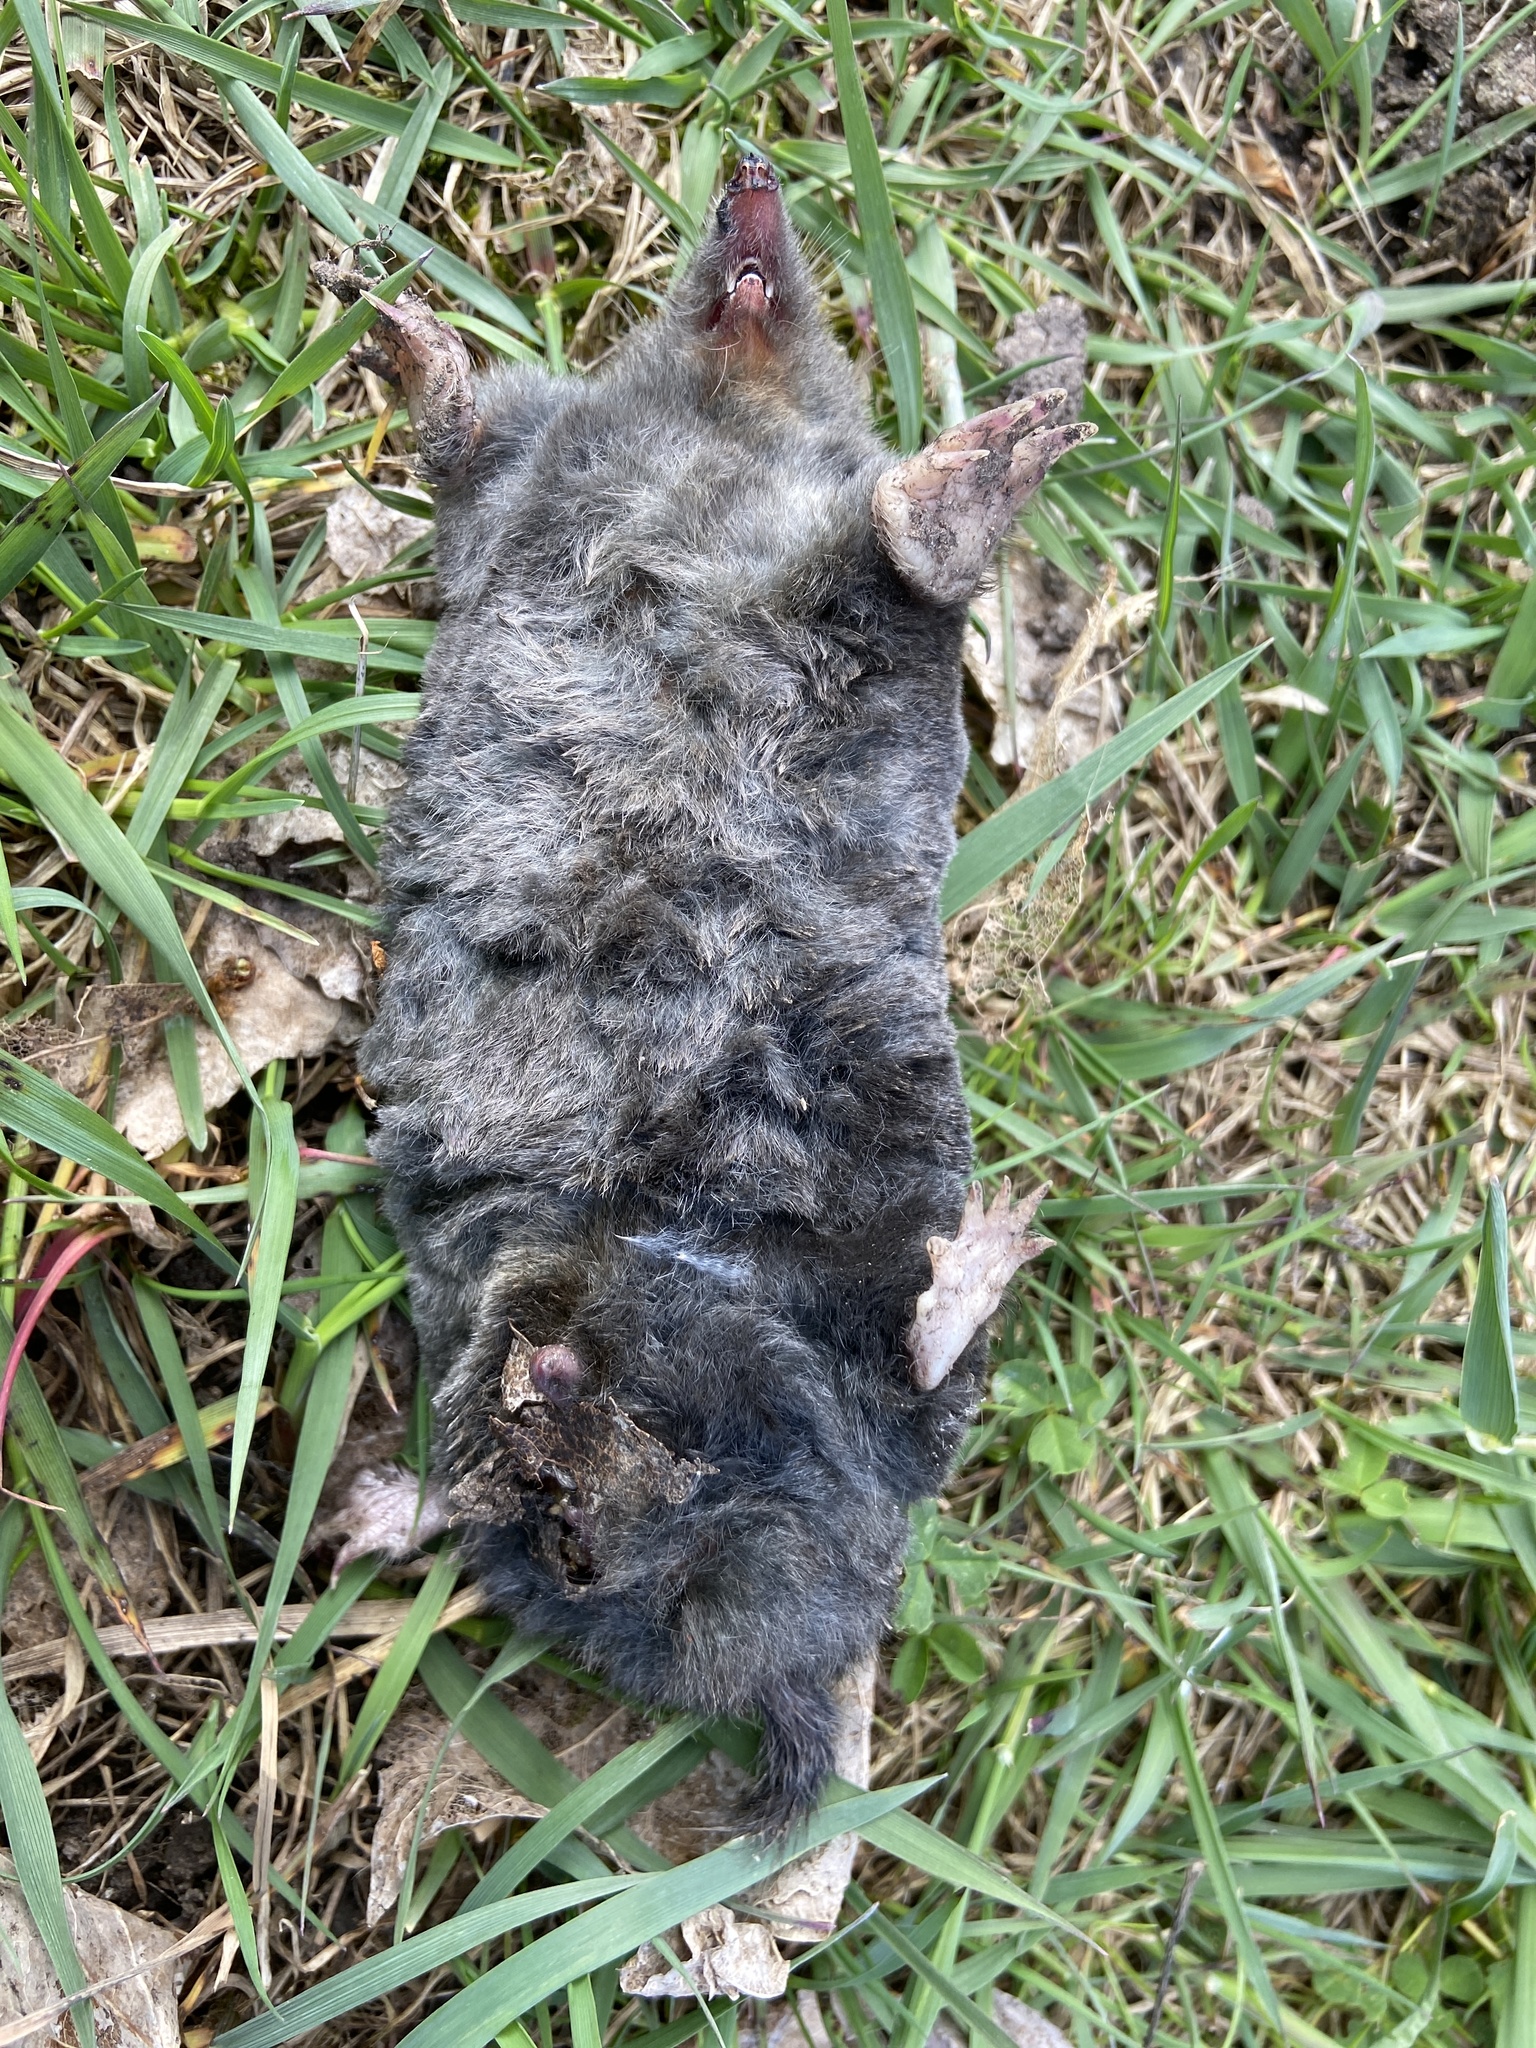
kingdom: Animalia
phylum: Chordata
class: Mammalia
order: Soricomorpha
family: Talpidae
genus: Talpa
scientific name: Talpa europaea
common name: European mole
